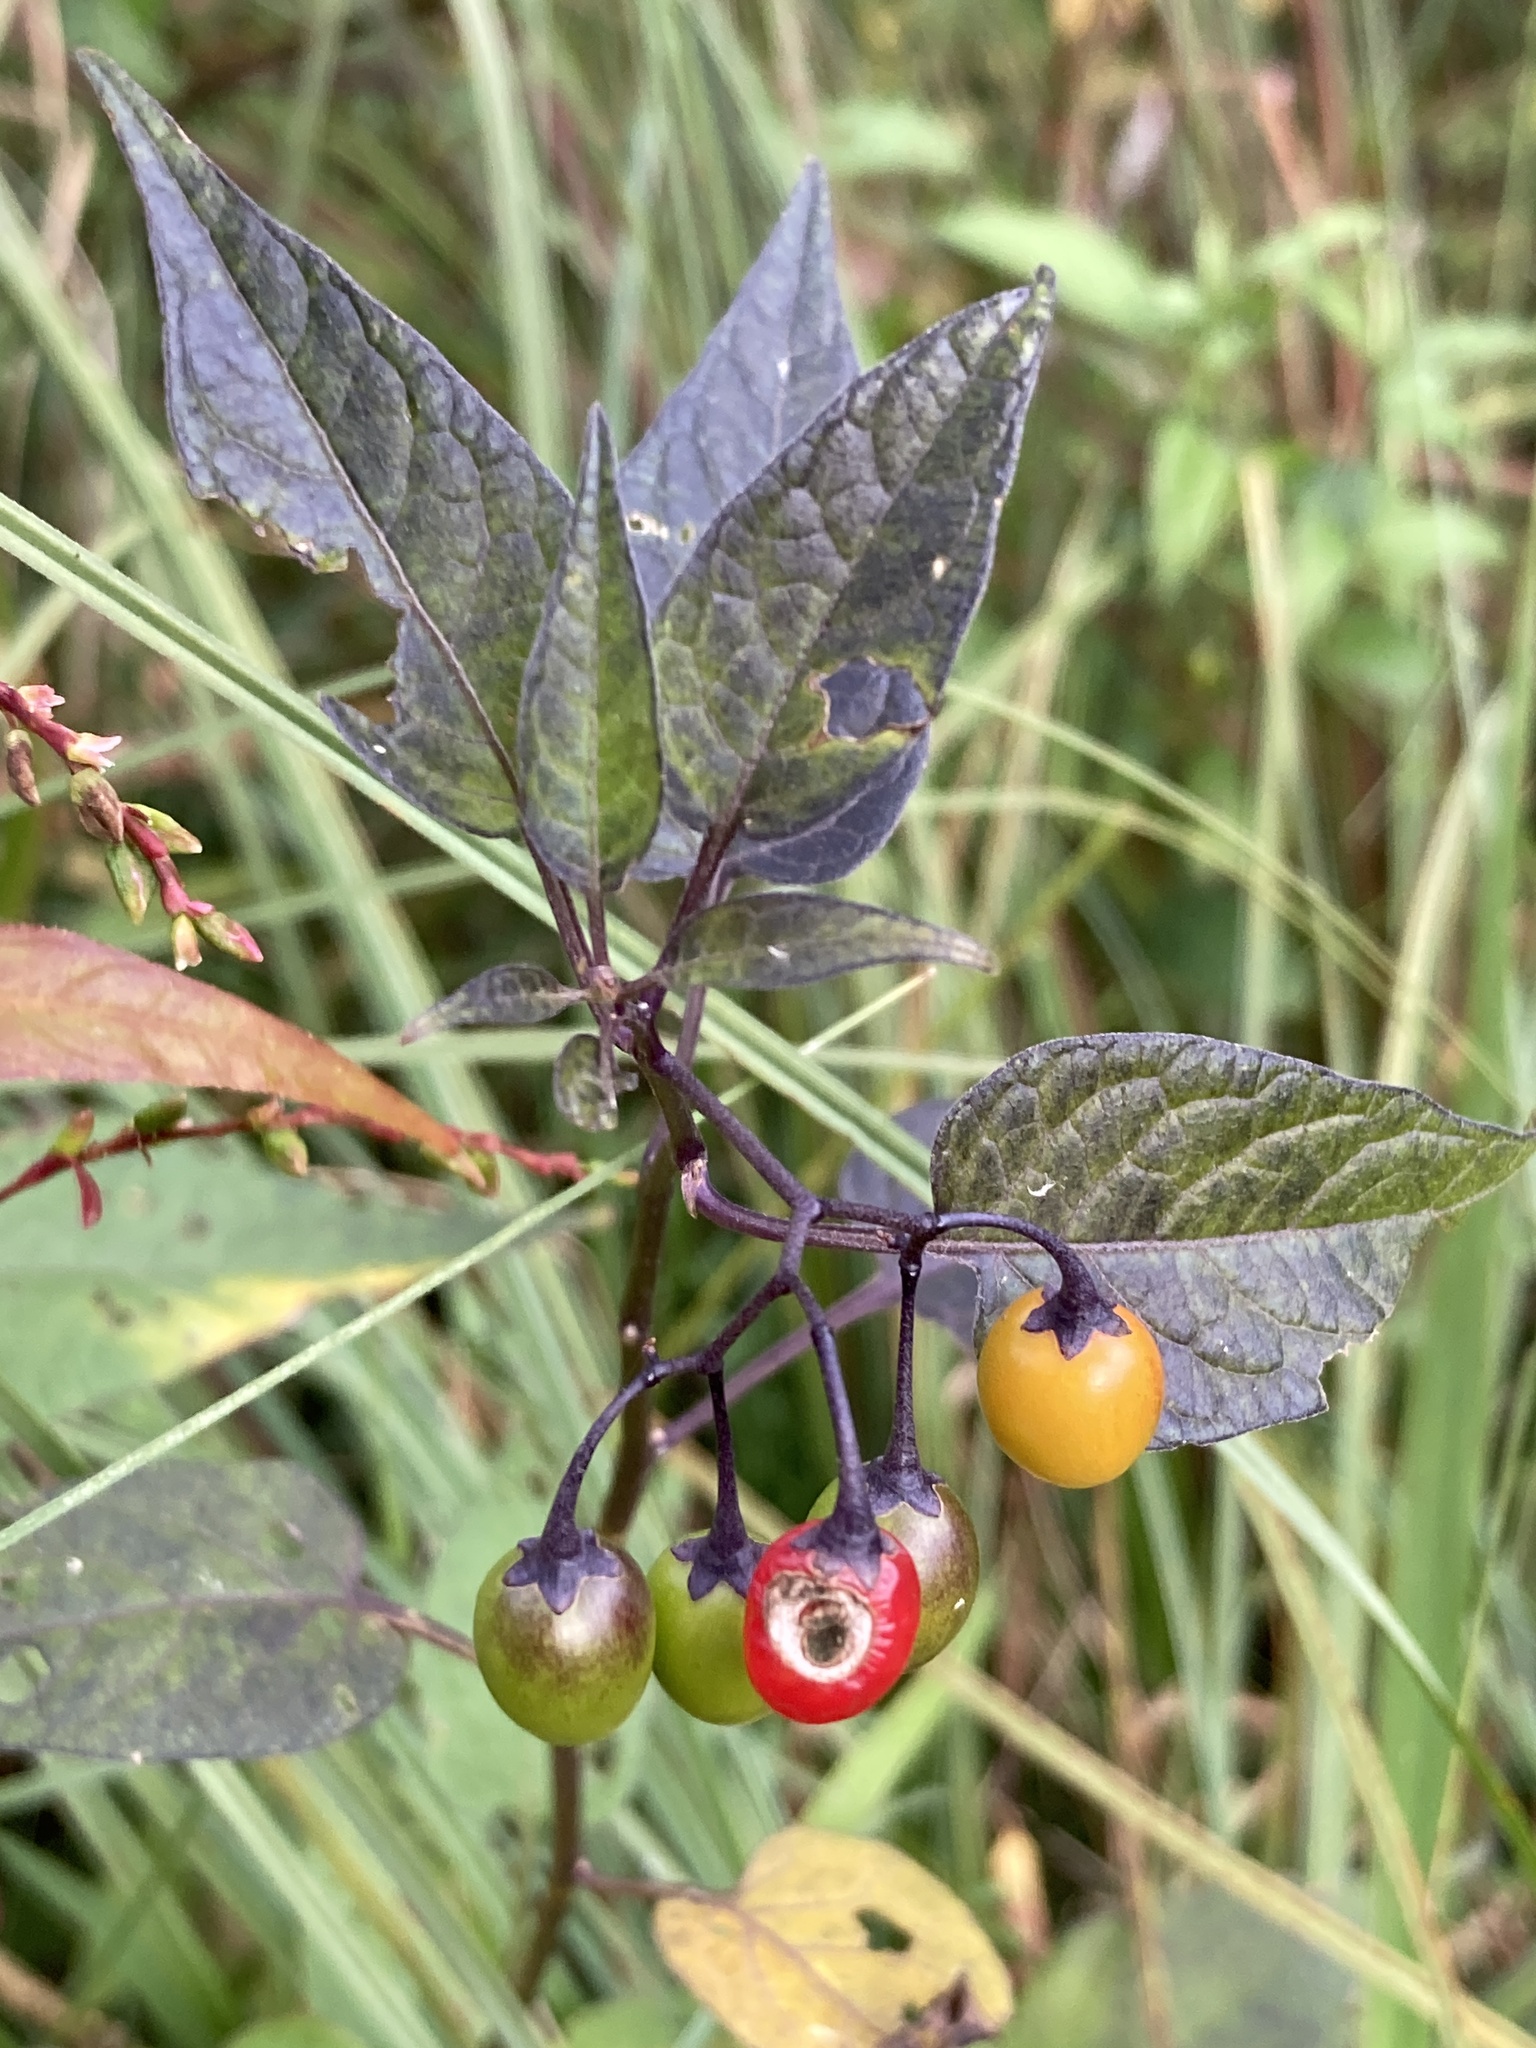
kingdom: Plantae
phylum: Tracheophyta
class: Magnoliopsida
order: Solanales
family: Solanaceae
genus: Solanum
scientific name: Solanum dulcamara
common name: Climbing nightshade
